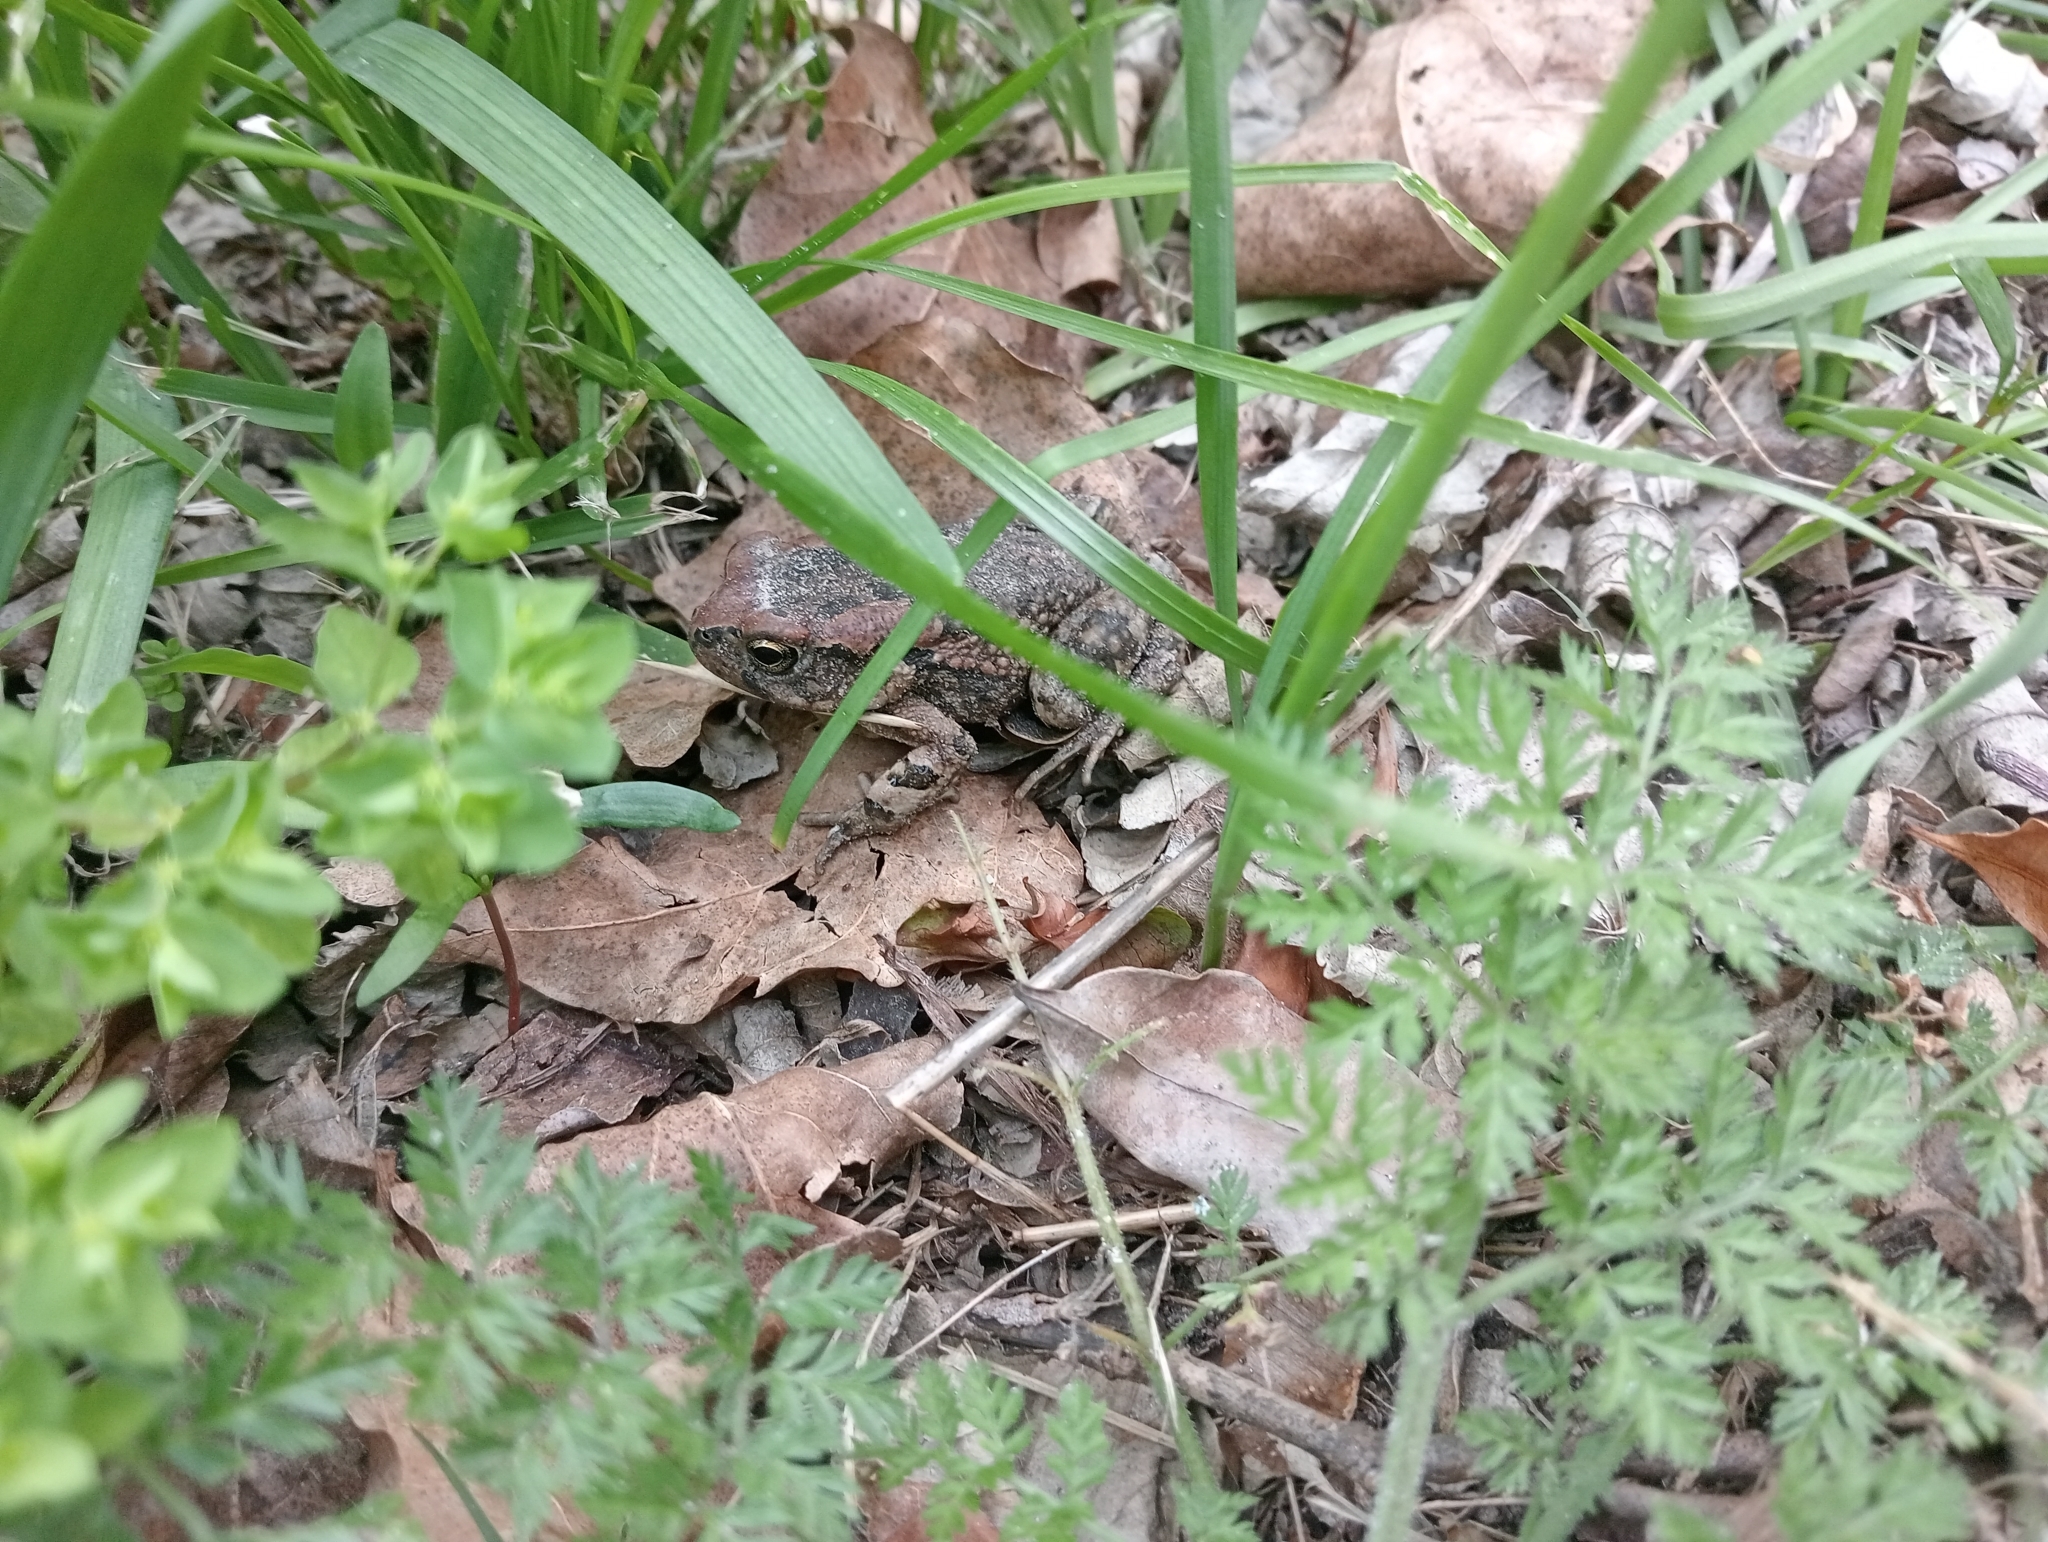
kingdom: Animalia
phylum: Chordata
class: Amphibia
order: Anura
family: Bufonidae
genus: Sclerophrys
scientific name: Sclerophrys capensis
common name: Ranger’s toad
